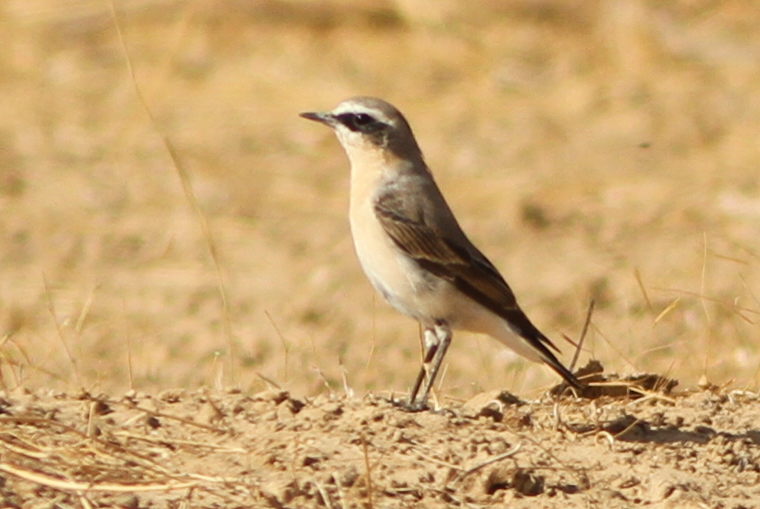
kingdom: Animalia
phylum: Chordata
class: Aves
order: Passeriformes
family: Muscicapidae
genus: Oenanthe
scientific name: Oenanthe oenanthe
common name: Northern wheatear
